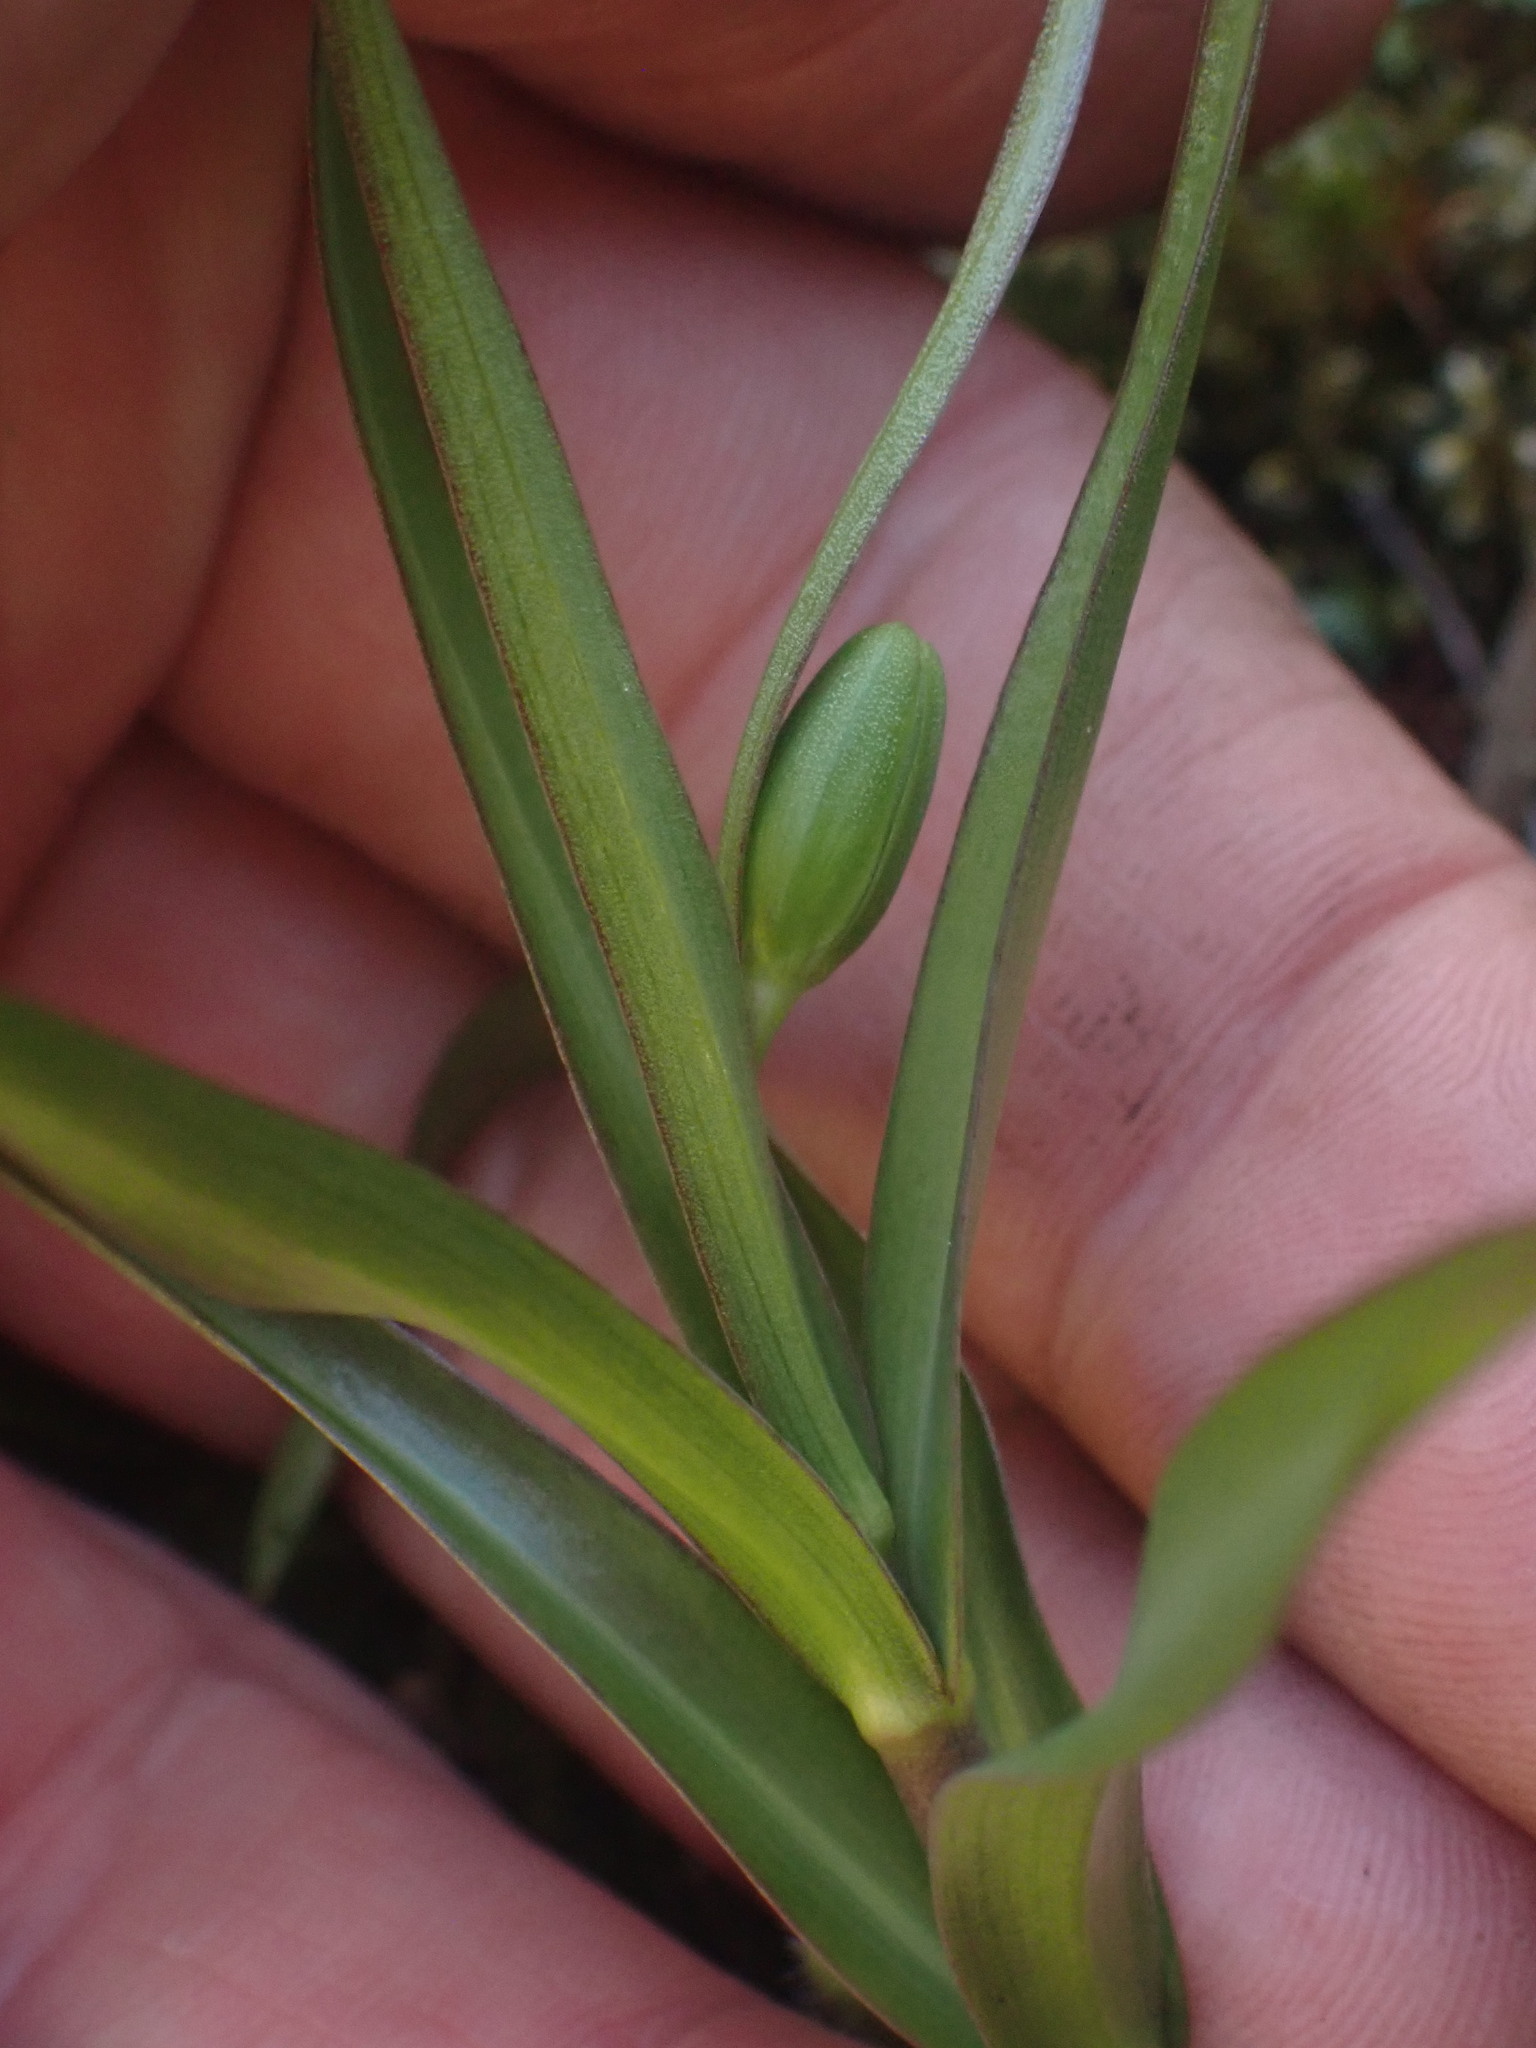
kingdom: Plantae
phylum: Tracheophyta
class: Liliopsida
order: Liliales
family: Liliaceae
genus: Fritillaria
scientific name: Fritillaria affinis
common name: Ojai fritillary
